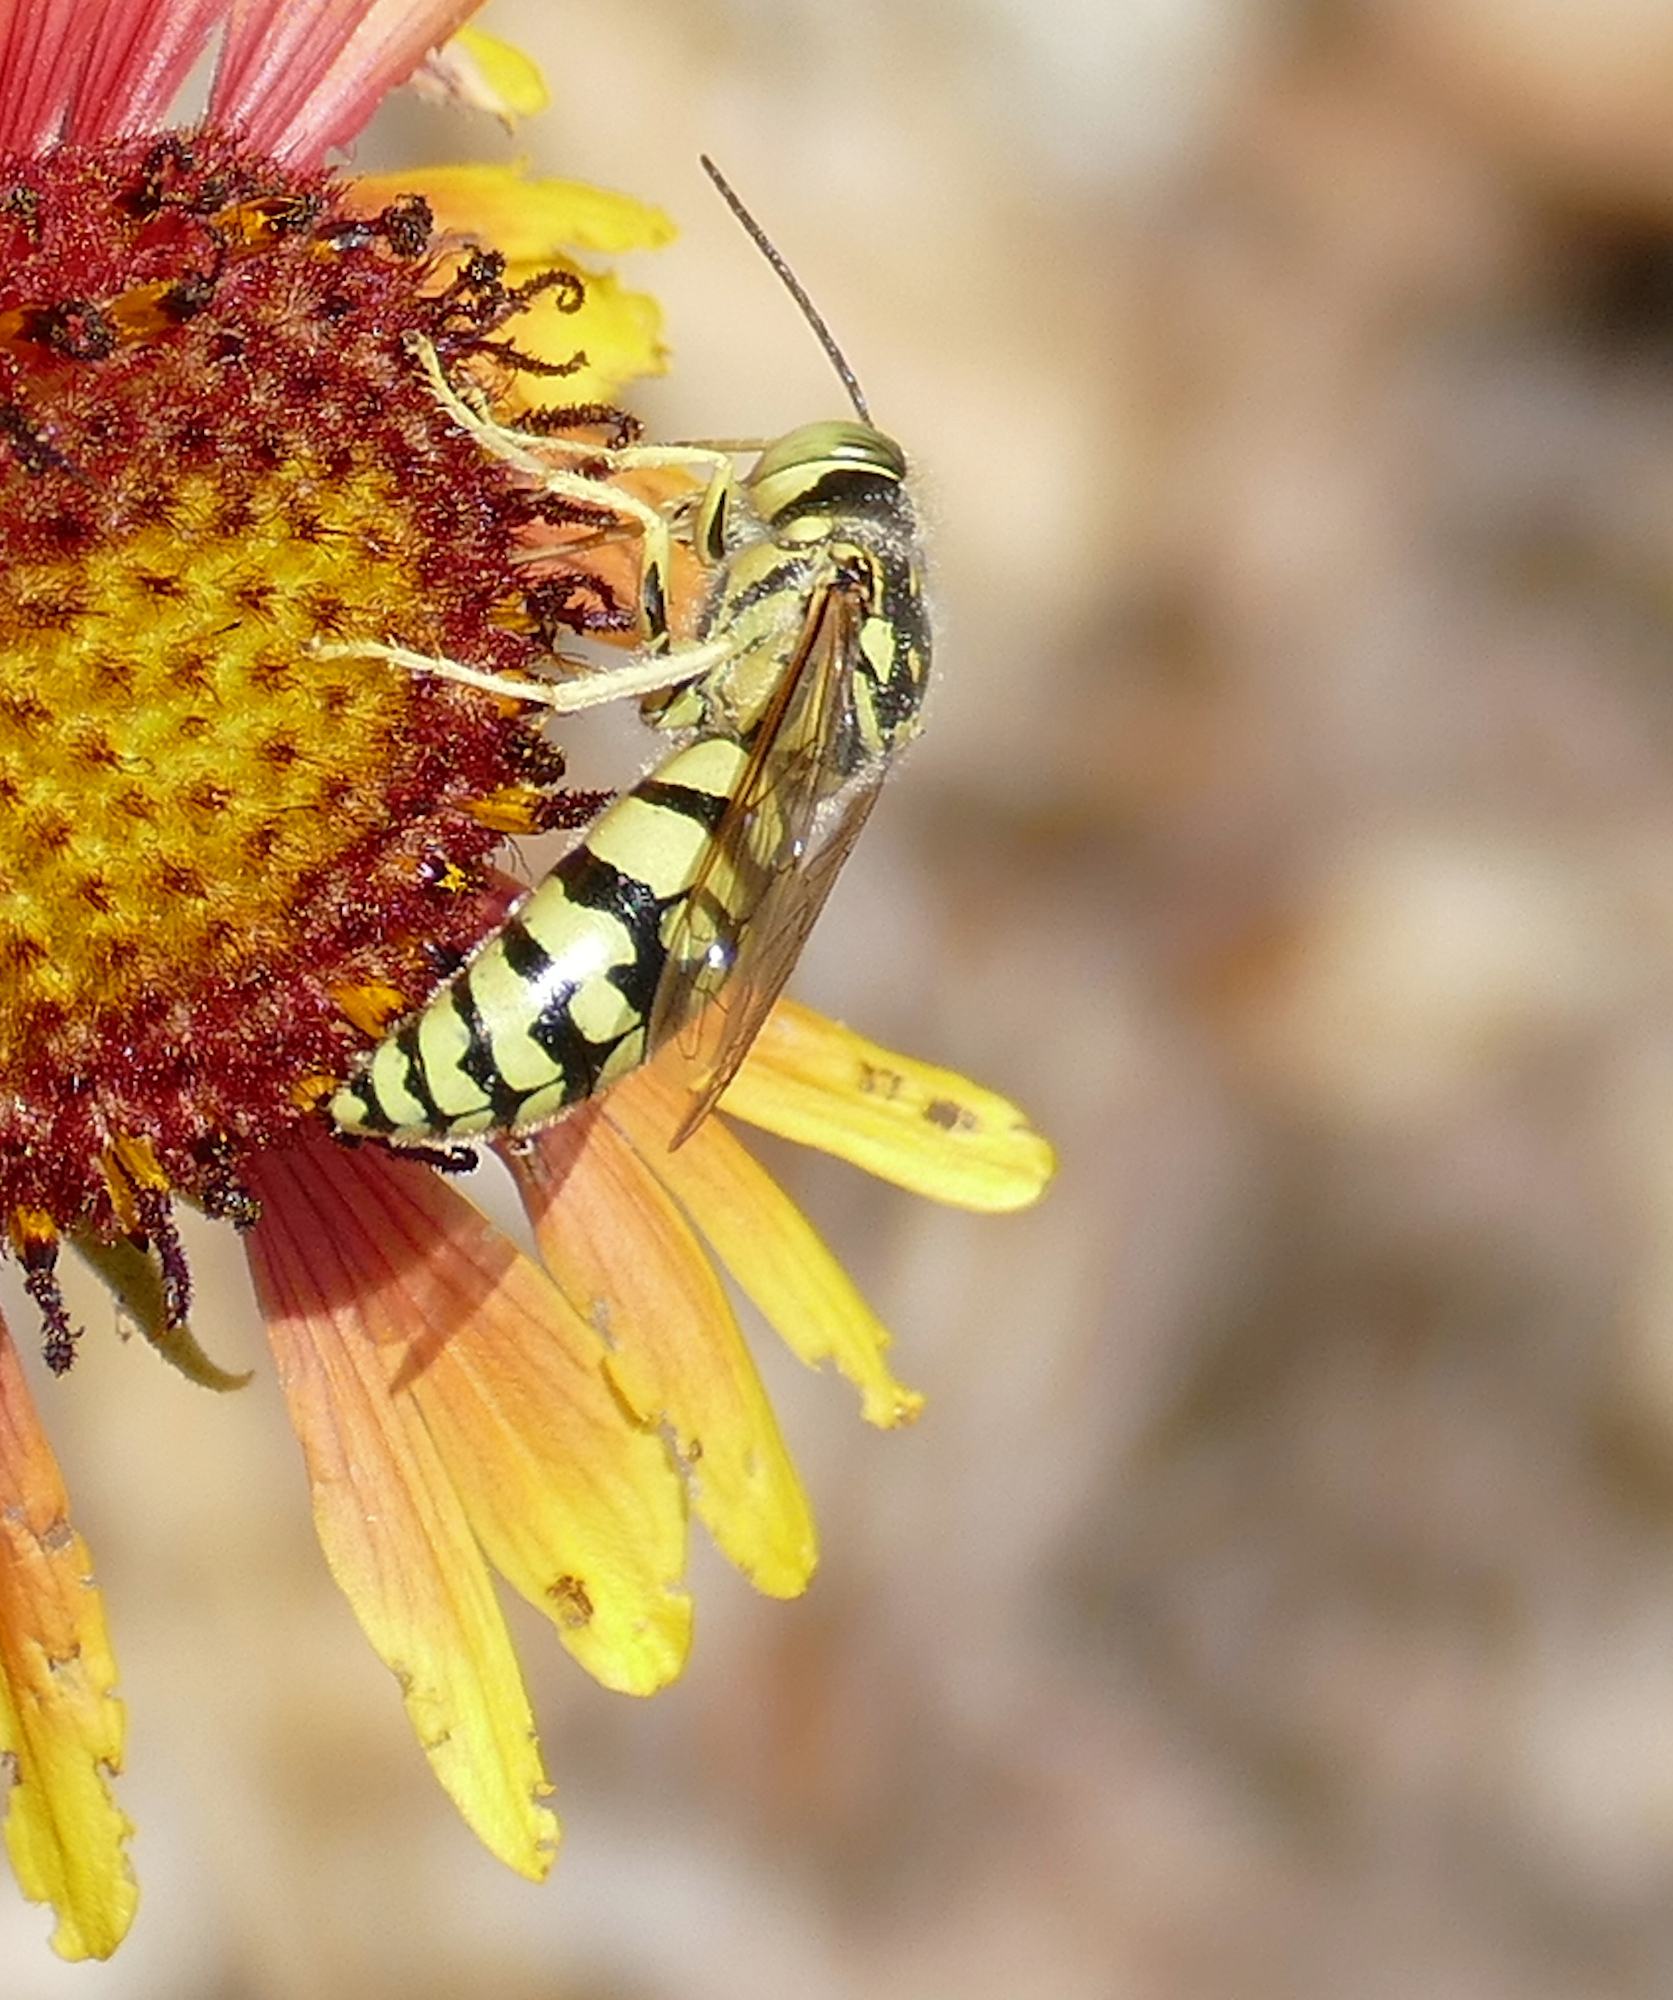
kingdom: Animalia
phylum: Arthropoda
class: Insecta
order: Hymenoptera
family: Crabronidae
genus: Steniolia
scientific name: Steniolia elegans
